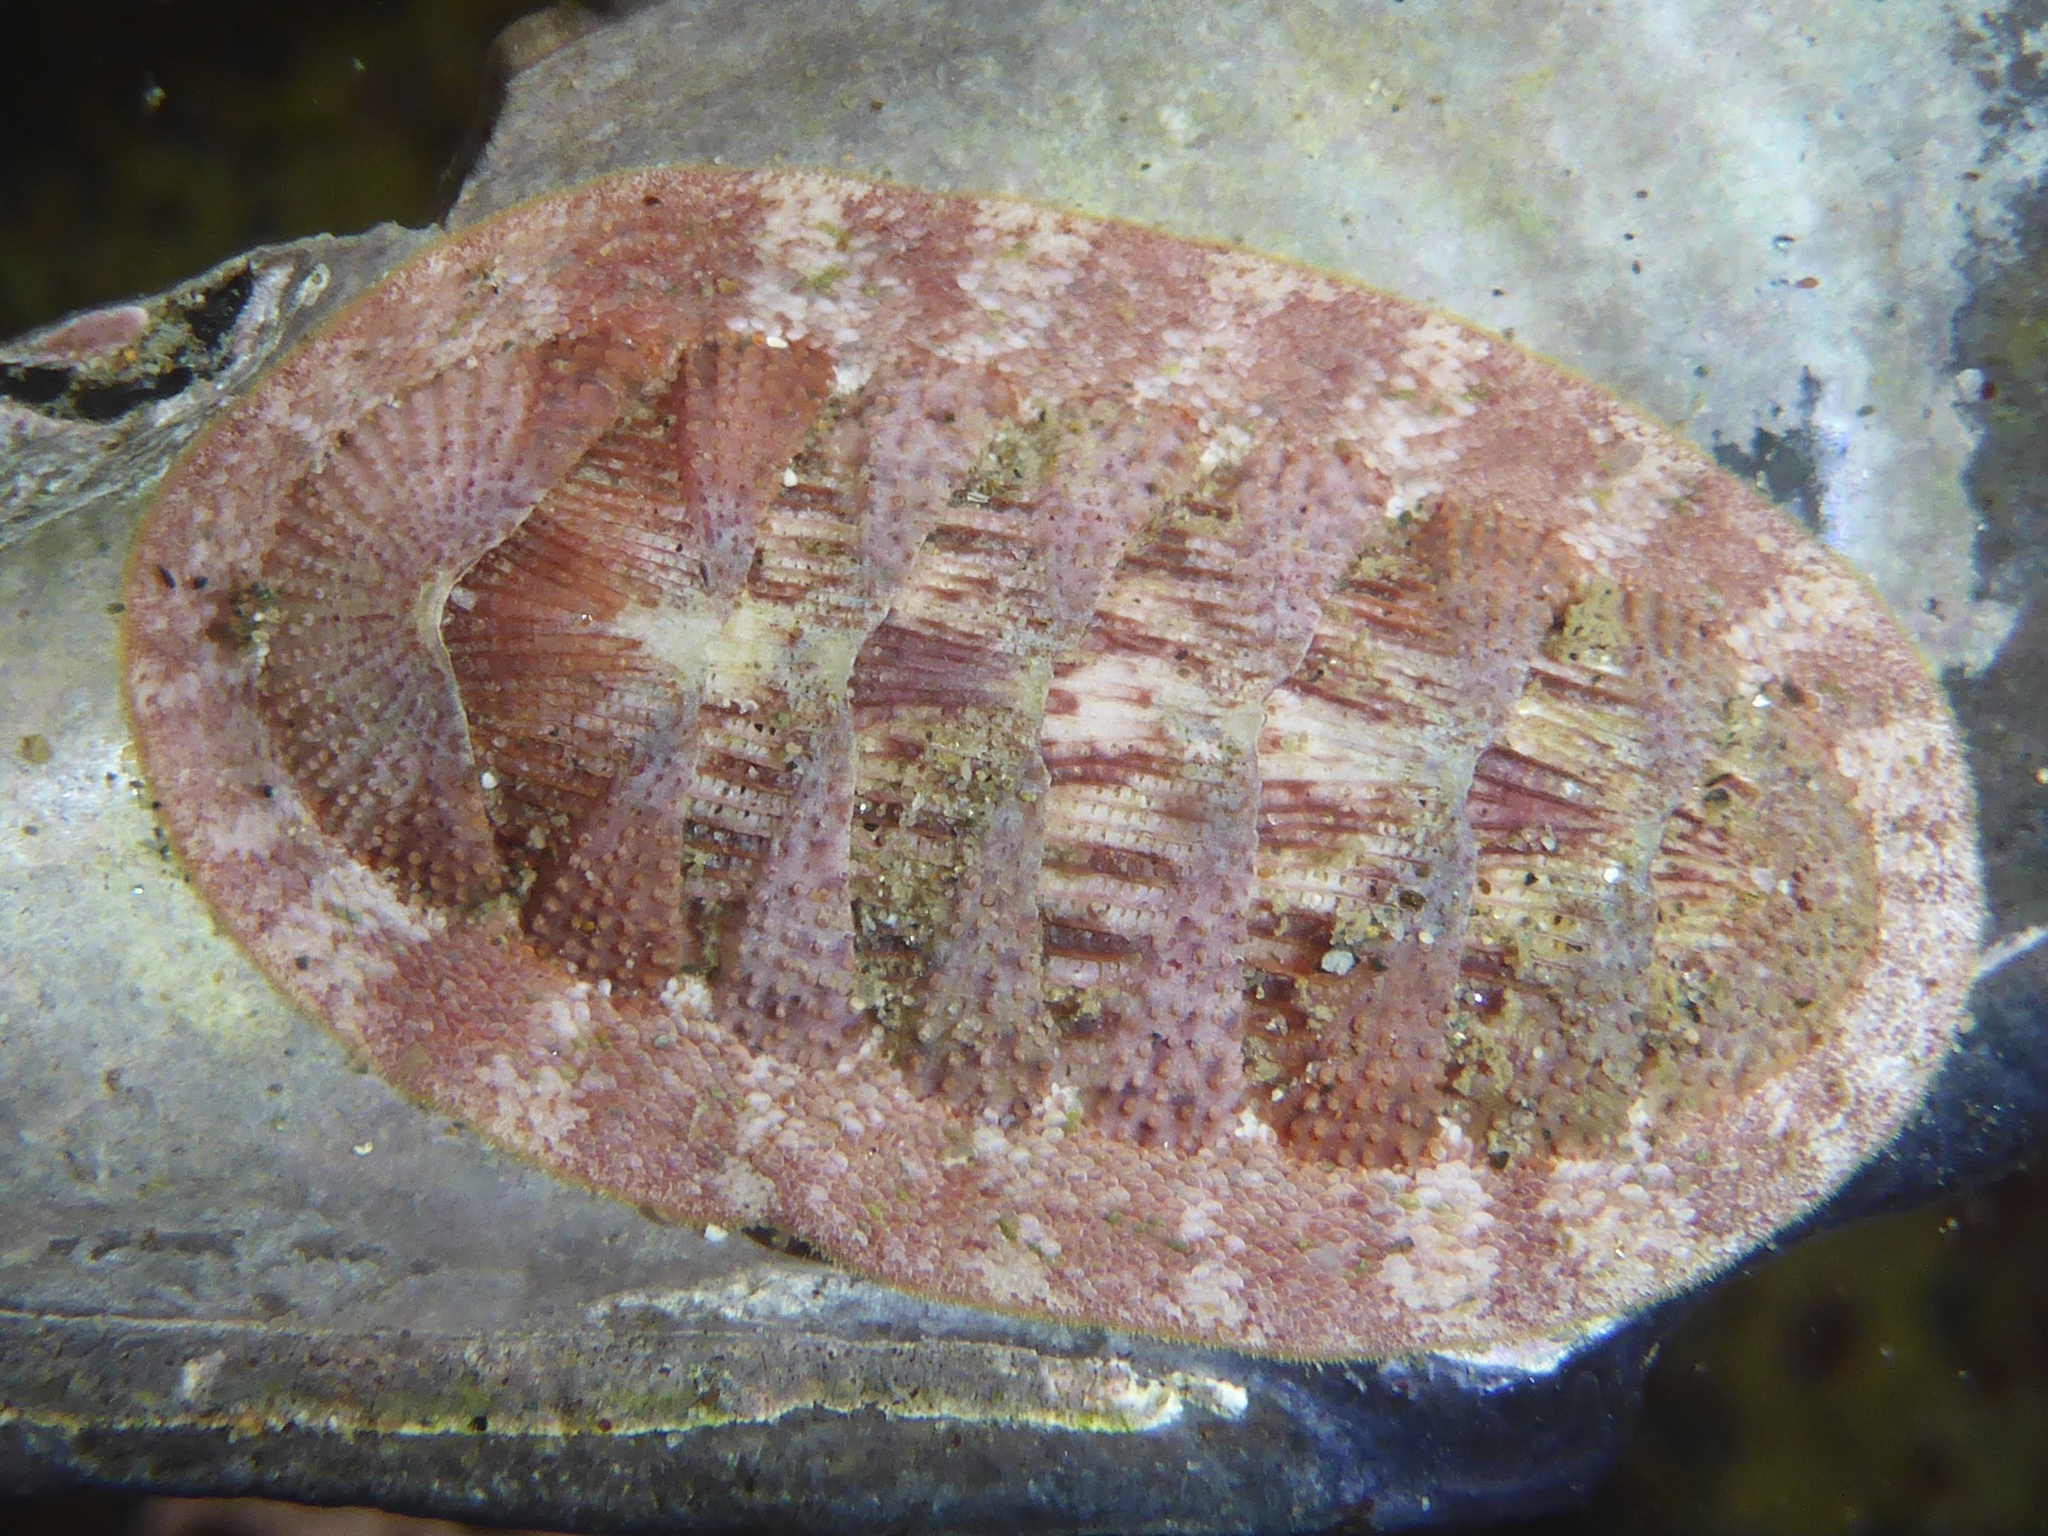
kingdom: Animalia
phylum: Mollusca
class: Polyplacophora
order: Chitonida
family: Ischnochitonidae
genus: Lepidozona
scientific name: Lepidozona mertensii
